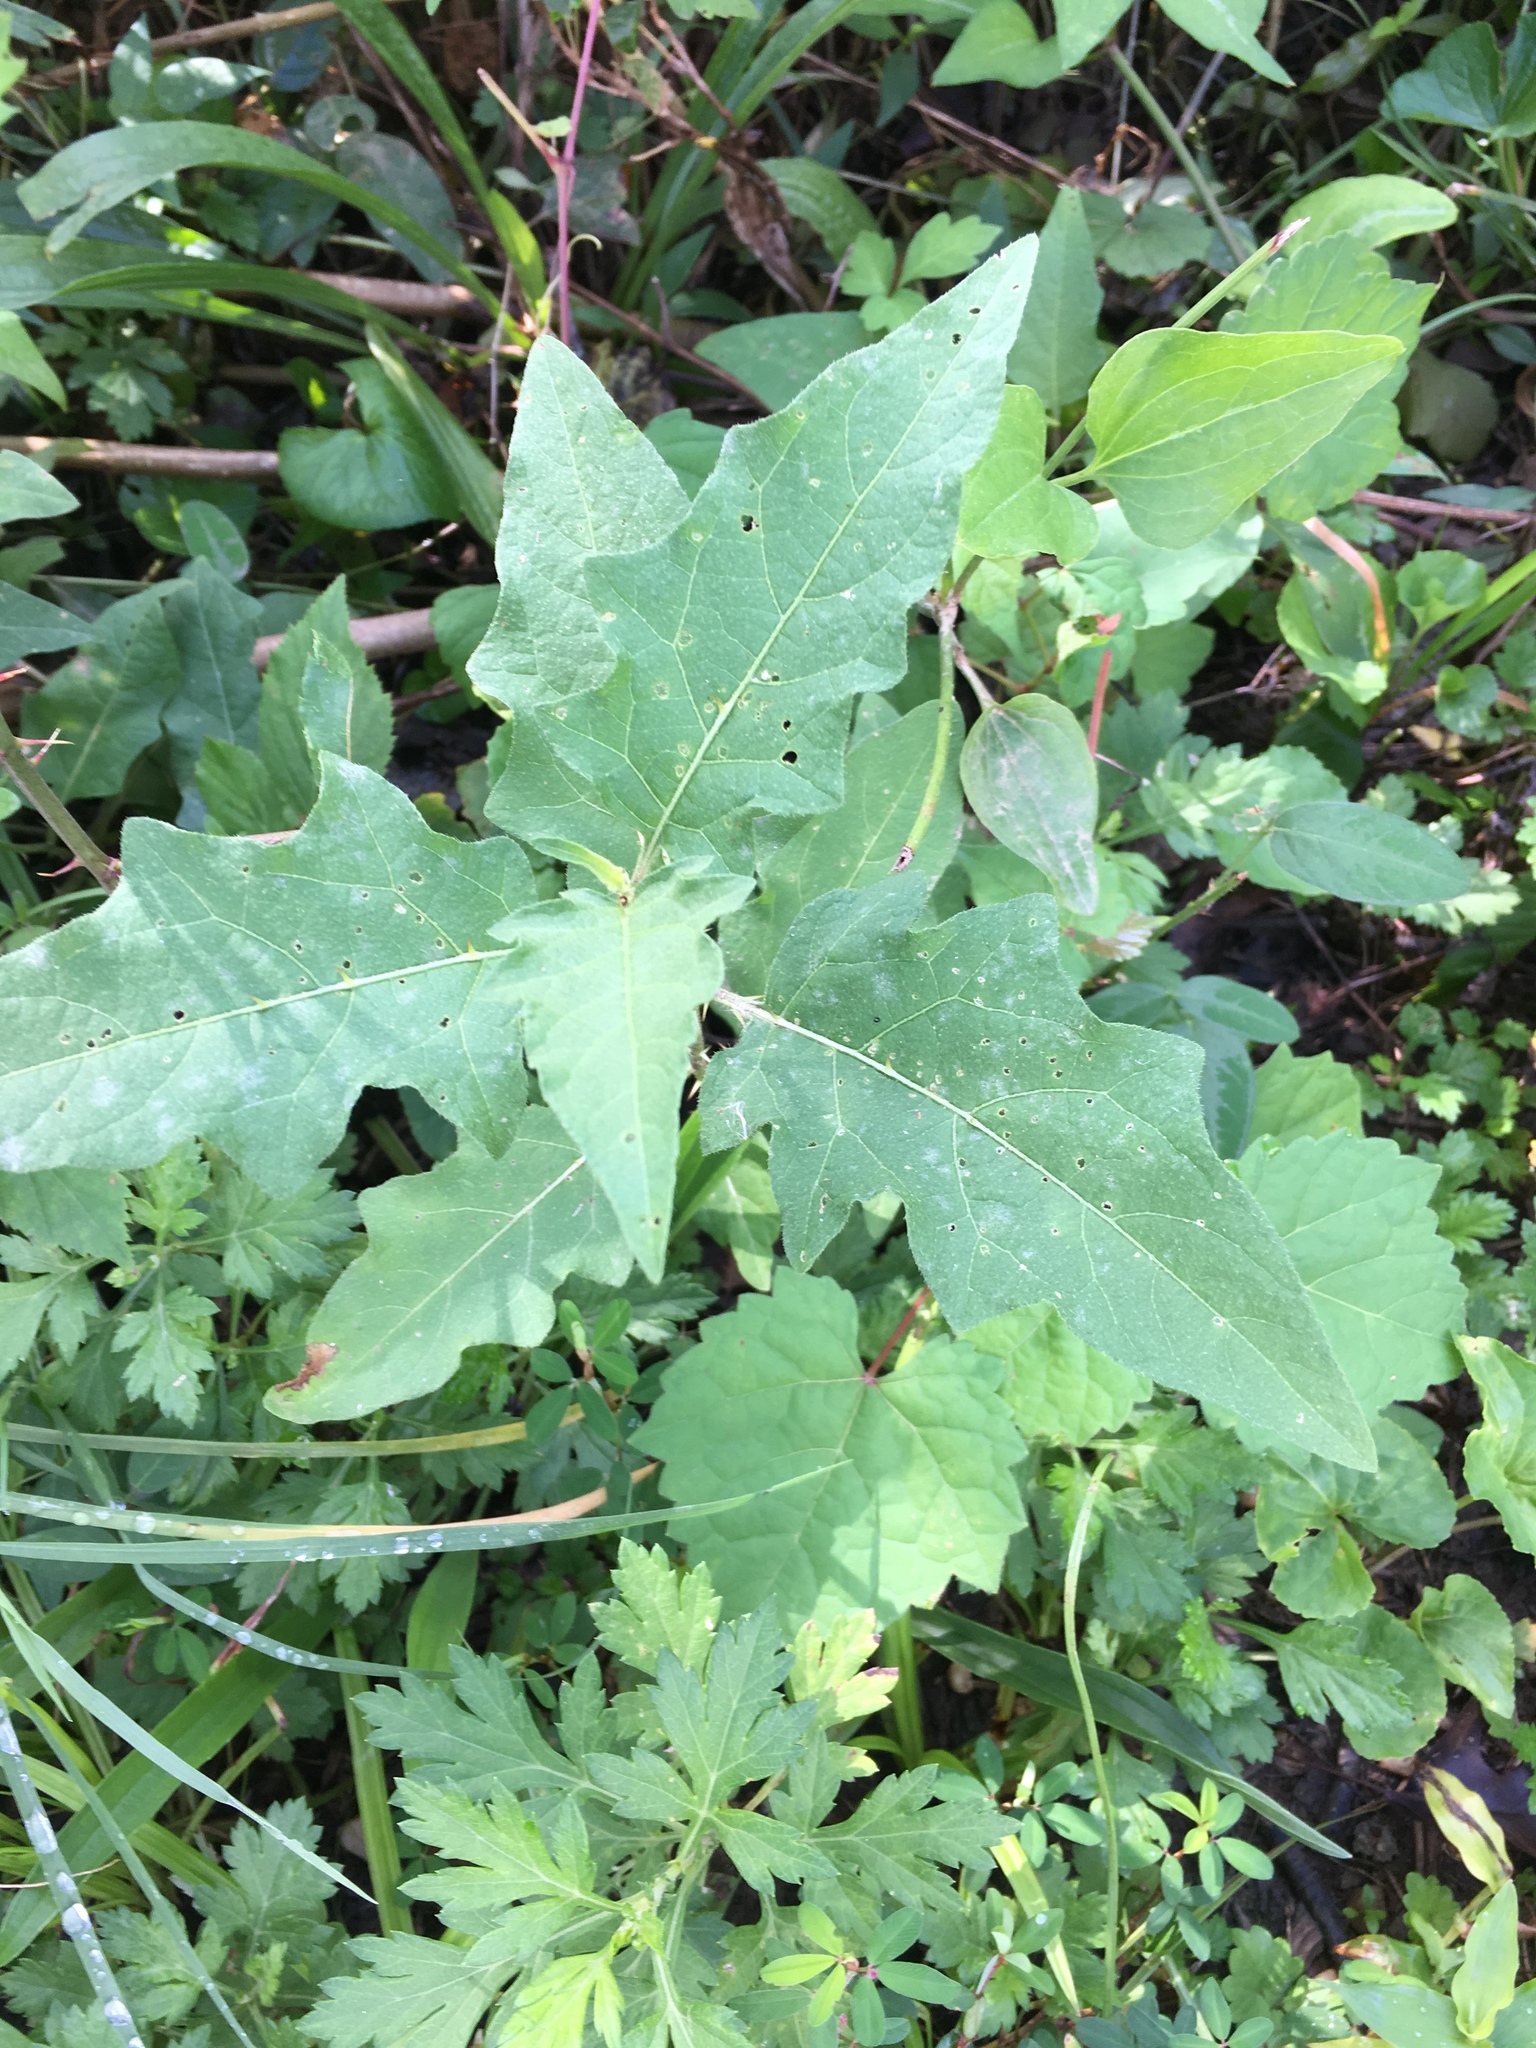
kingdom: Plantae
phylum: Tracheophyta
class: Magnoliopsida
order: Solanales
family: Solanaceae
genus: Solanum
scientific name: Solanum carolinense
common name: Horse-nettle
